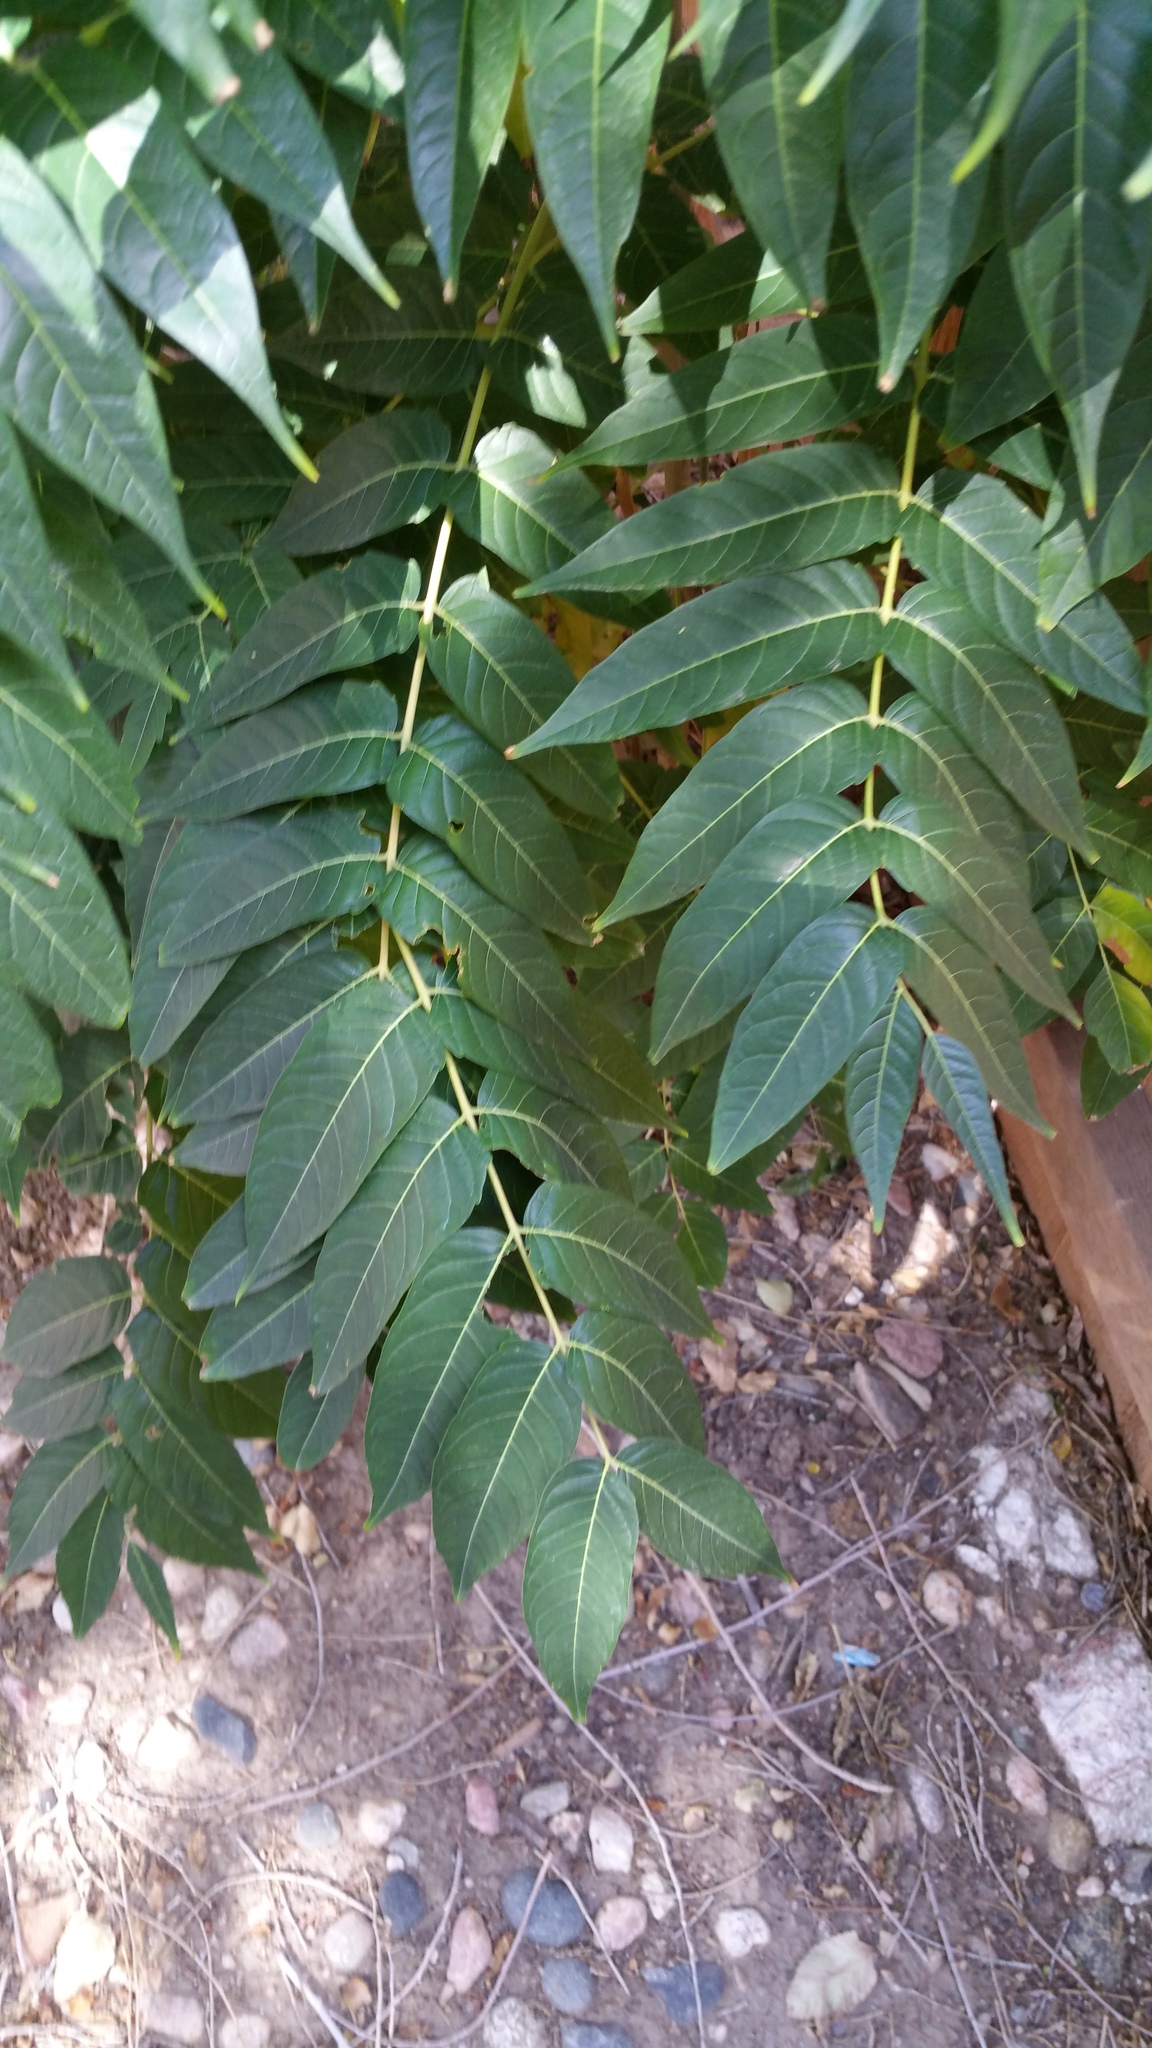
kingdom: Plantae
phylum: Tracheophyta
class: Magnoliopsida
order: Sapindales
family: Simaroubaceae
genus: Ailanthus
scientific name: Ailanthus altissima
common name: Tree-of-heaven
